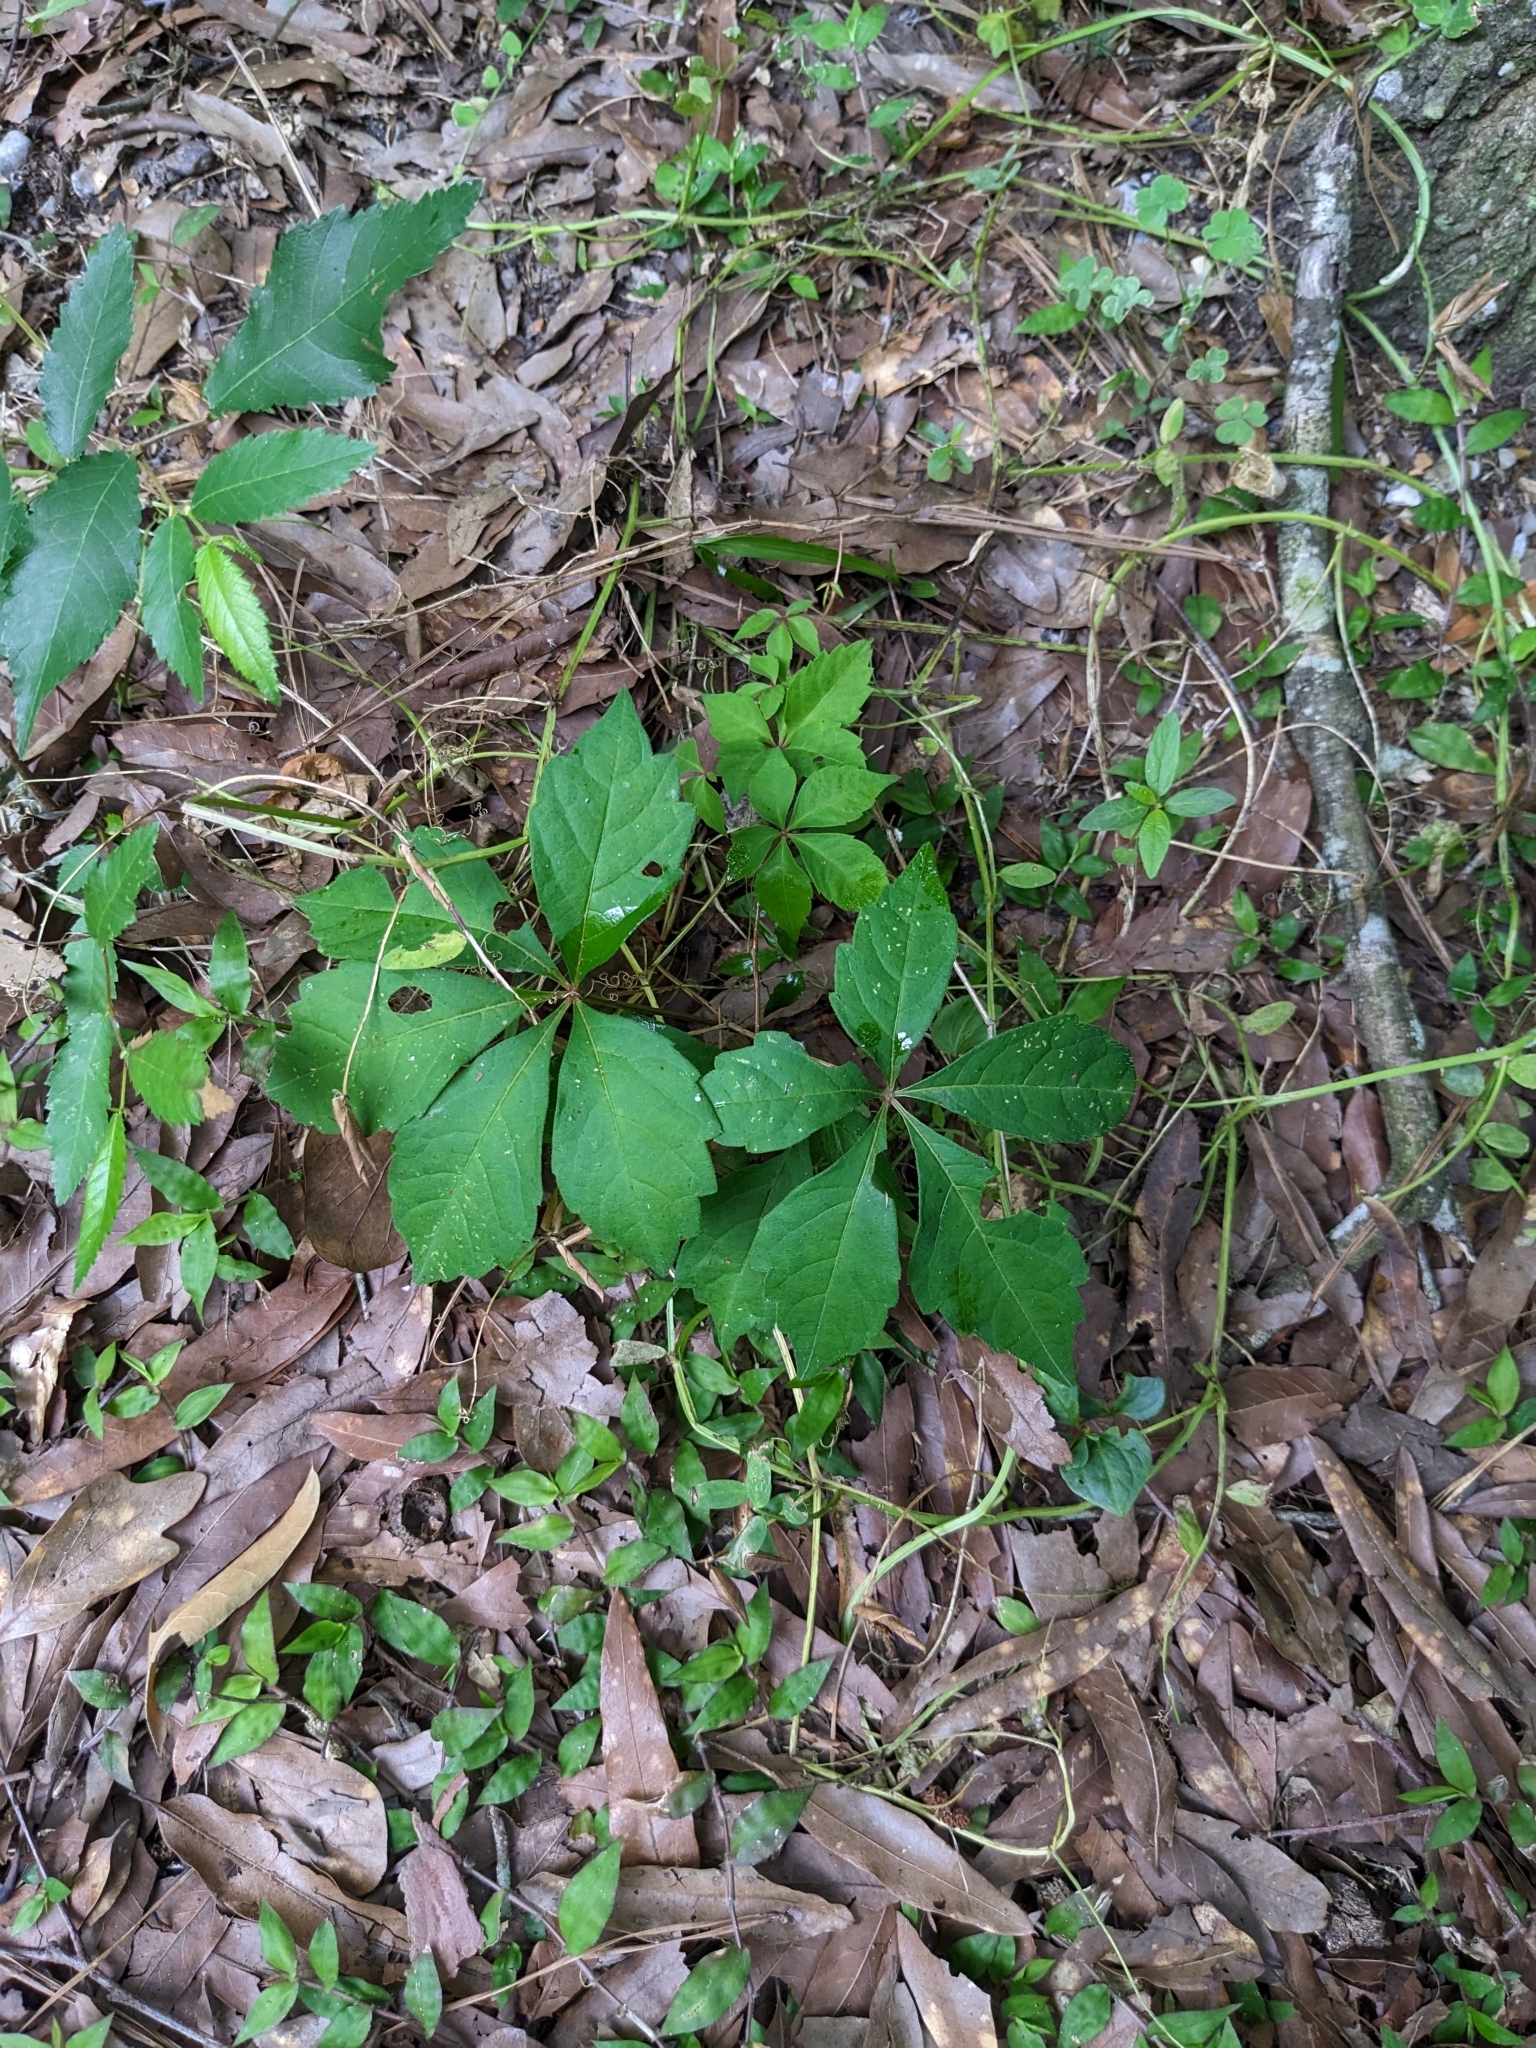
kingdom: Plantae
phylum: Tracheophyta
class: Magnoliopsida
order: Vitales
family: Vitaceae
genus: Parthenocissus
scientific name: Parthenocissus quinquefolia
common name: Virginia-creeper
